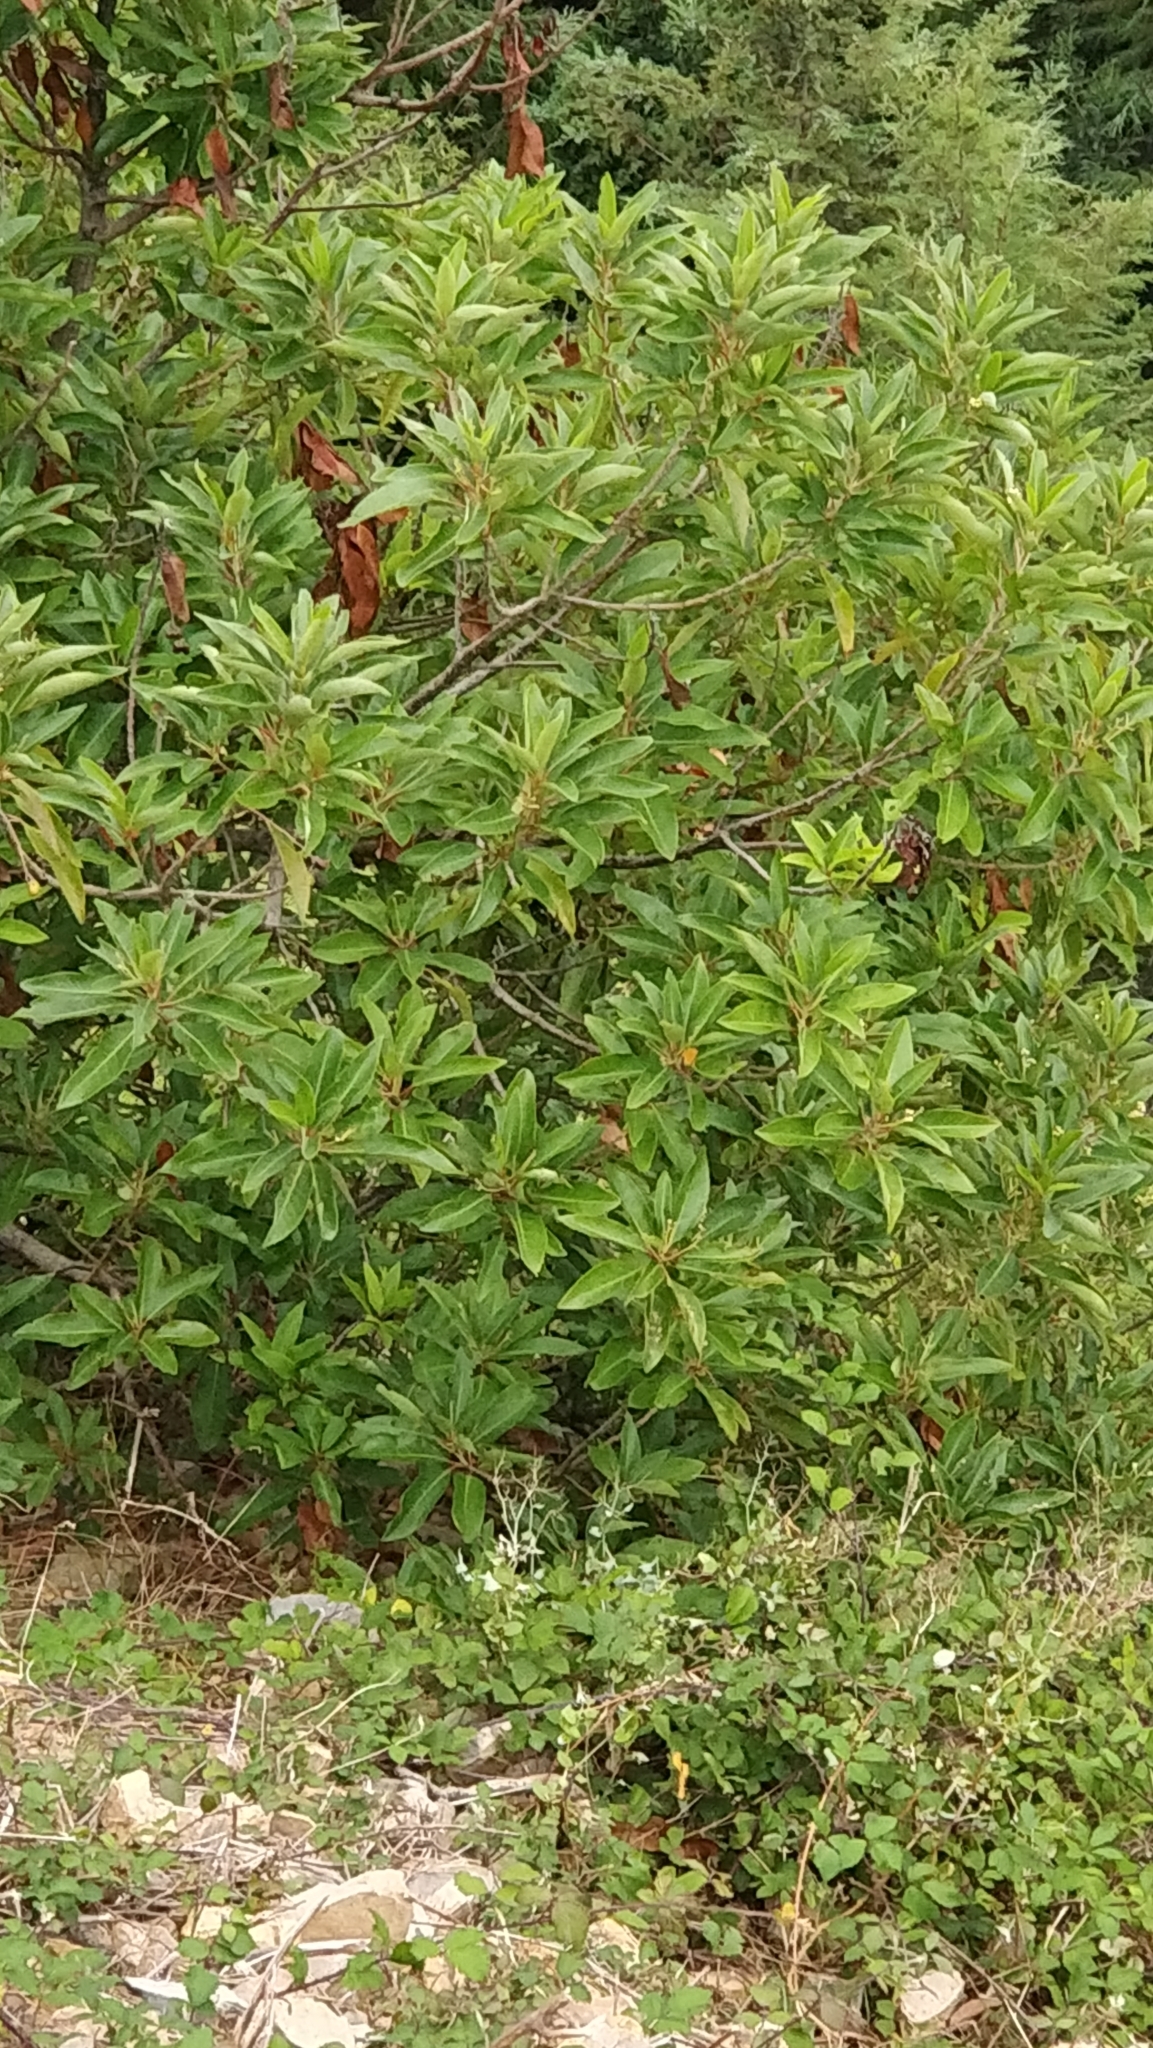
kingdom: Plantae
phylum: Tracheophyta
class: Magnoliopsida
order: Laurales
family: Lauraceae
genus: Persea
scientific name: Persea indica
